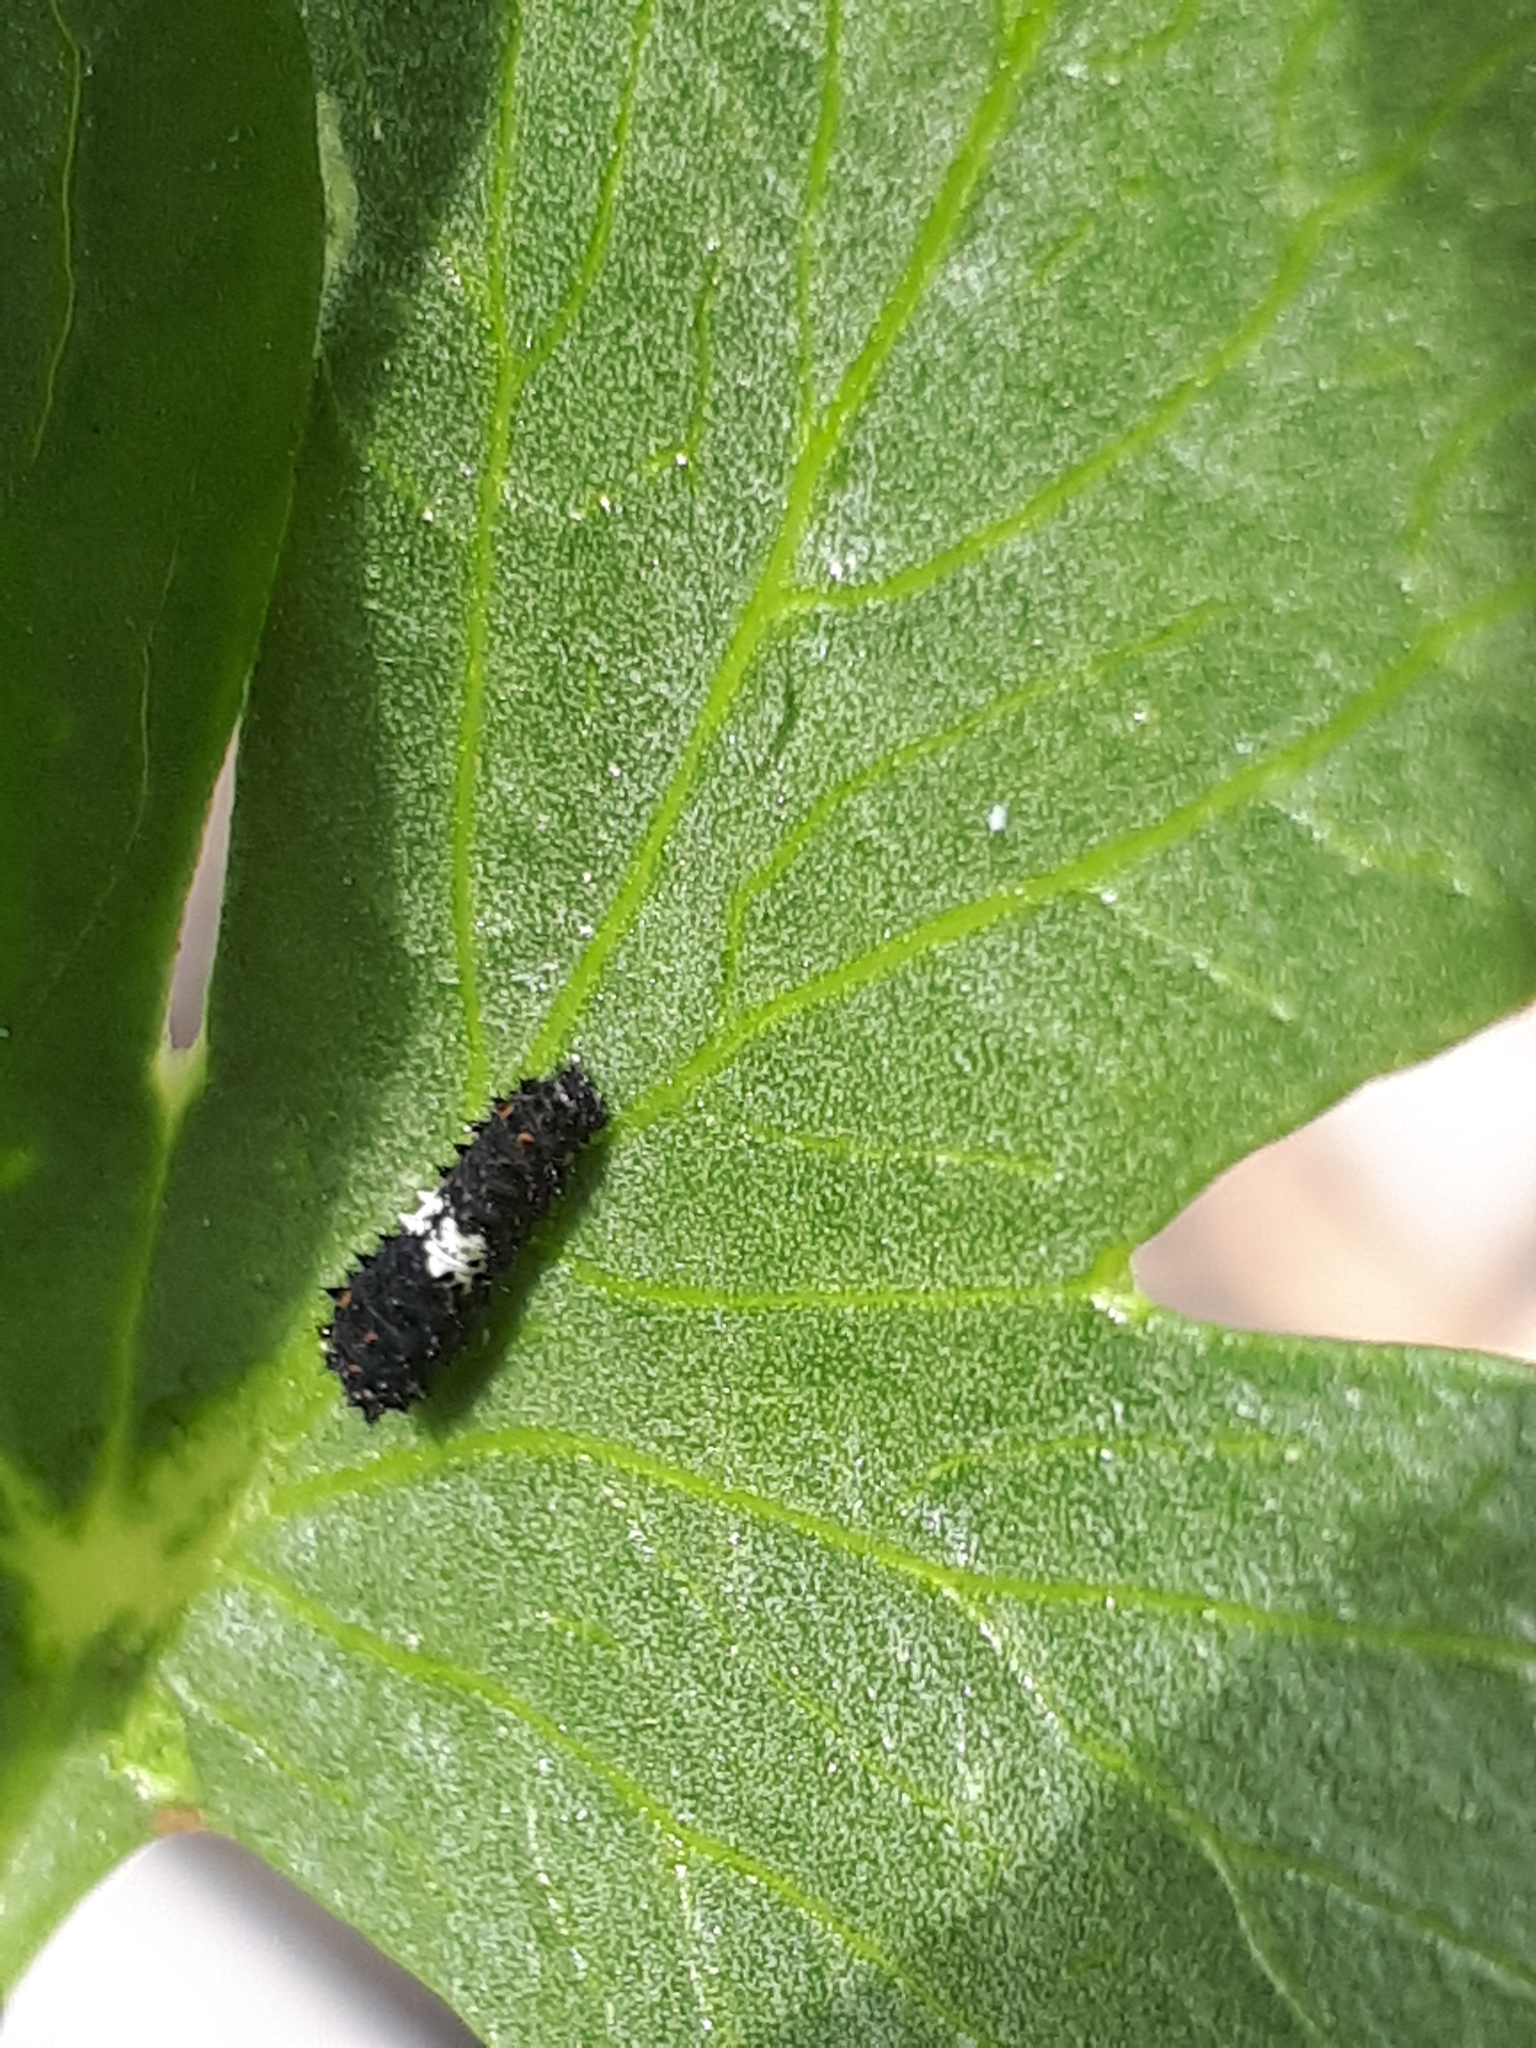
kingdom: Animalia
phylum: Arthropoda
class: Insecta
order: Lepidoptera
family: Papilionidae
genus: Papilio
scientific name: Papilio machaon
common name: Swallowtail
